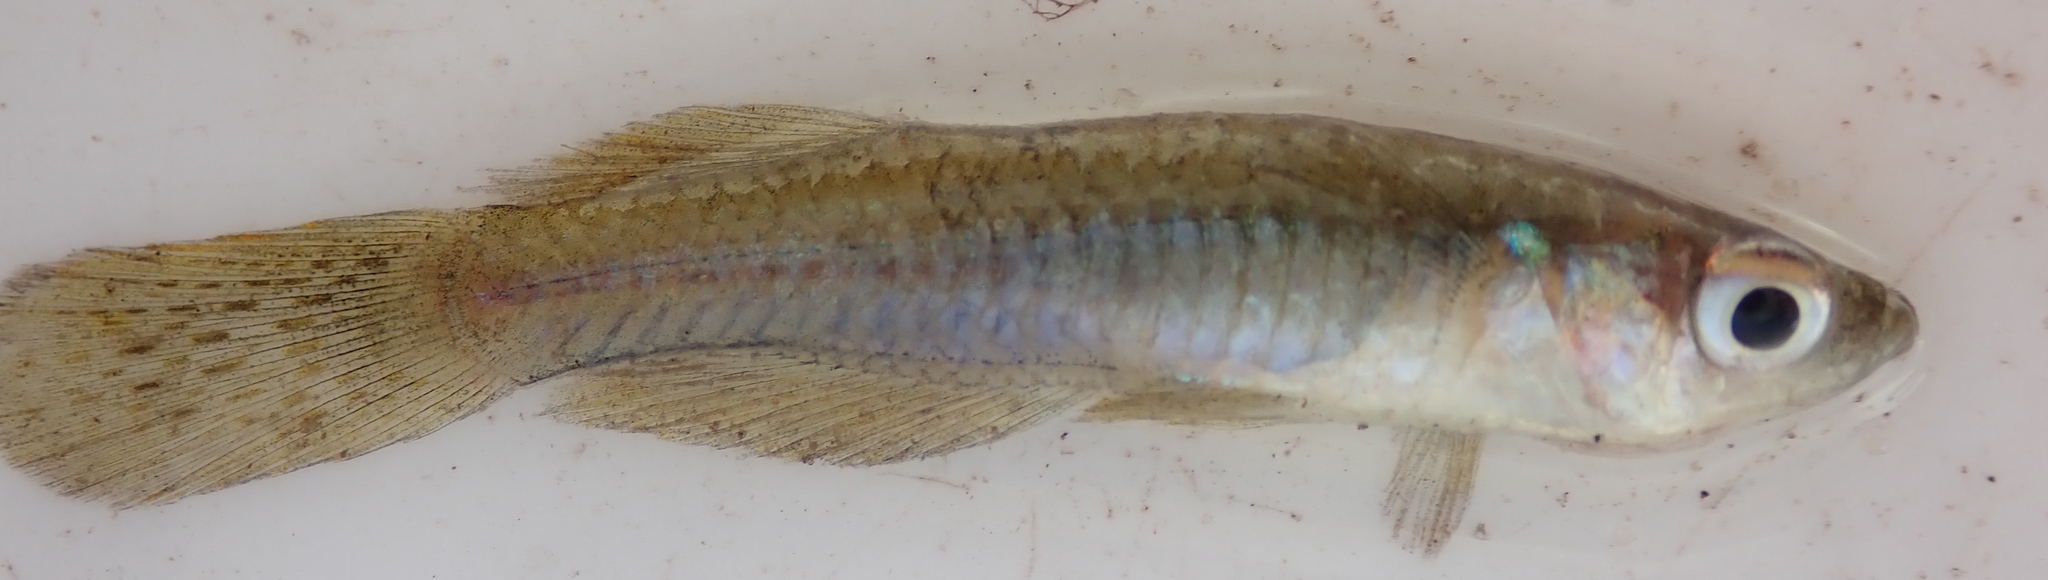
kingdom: Animalia
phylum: Chordata
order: Cyprinodontiformes
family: Poeciliidae
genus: Micropanchax
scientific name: Micropanchax johnstoni
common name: Johnston's topminnow
